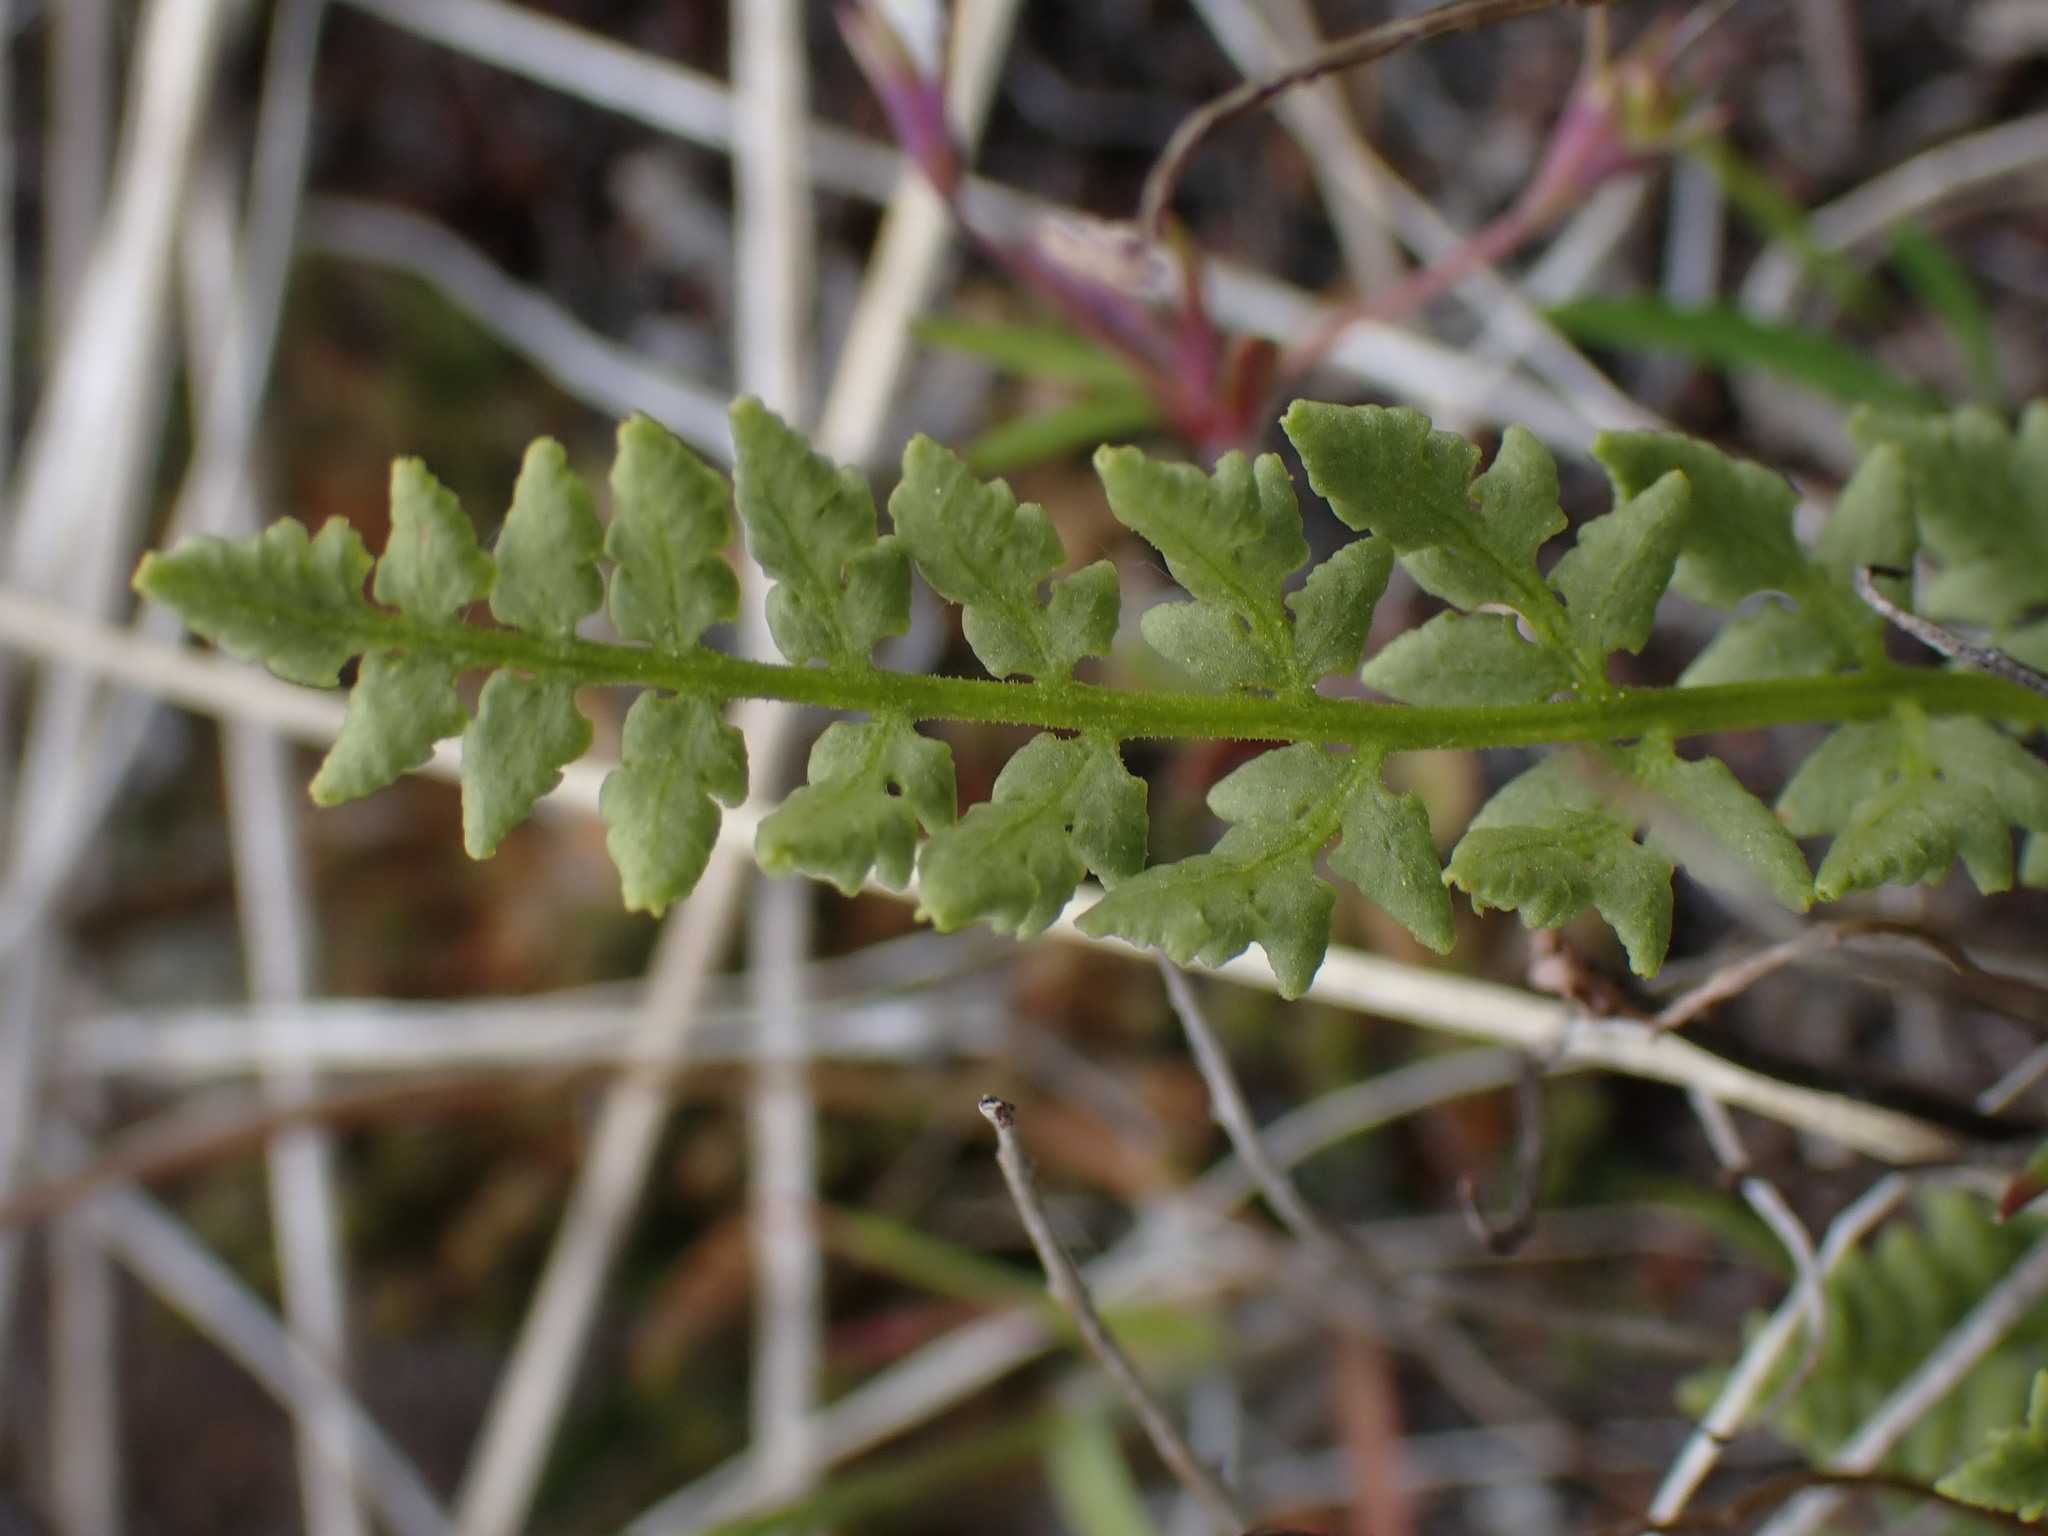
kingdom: Plantae
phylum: Tracheophyta
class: Polypodiopsida
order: Polypodiales
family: Woodsiaceae
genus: Physematium
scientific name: Physematium oreganum
